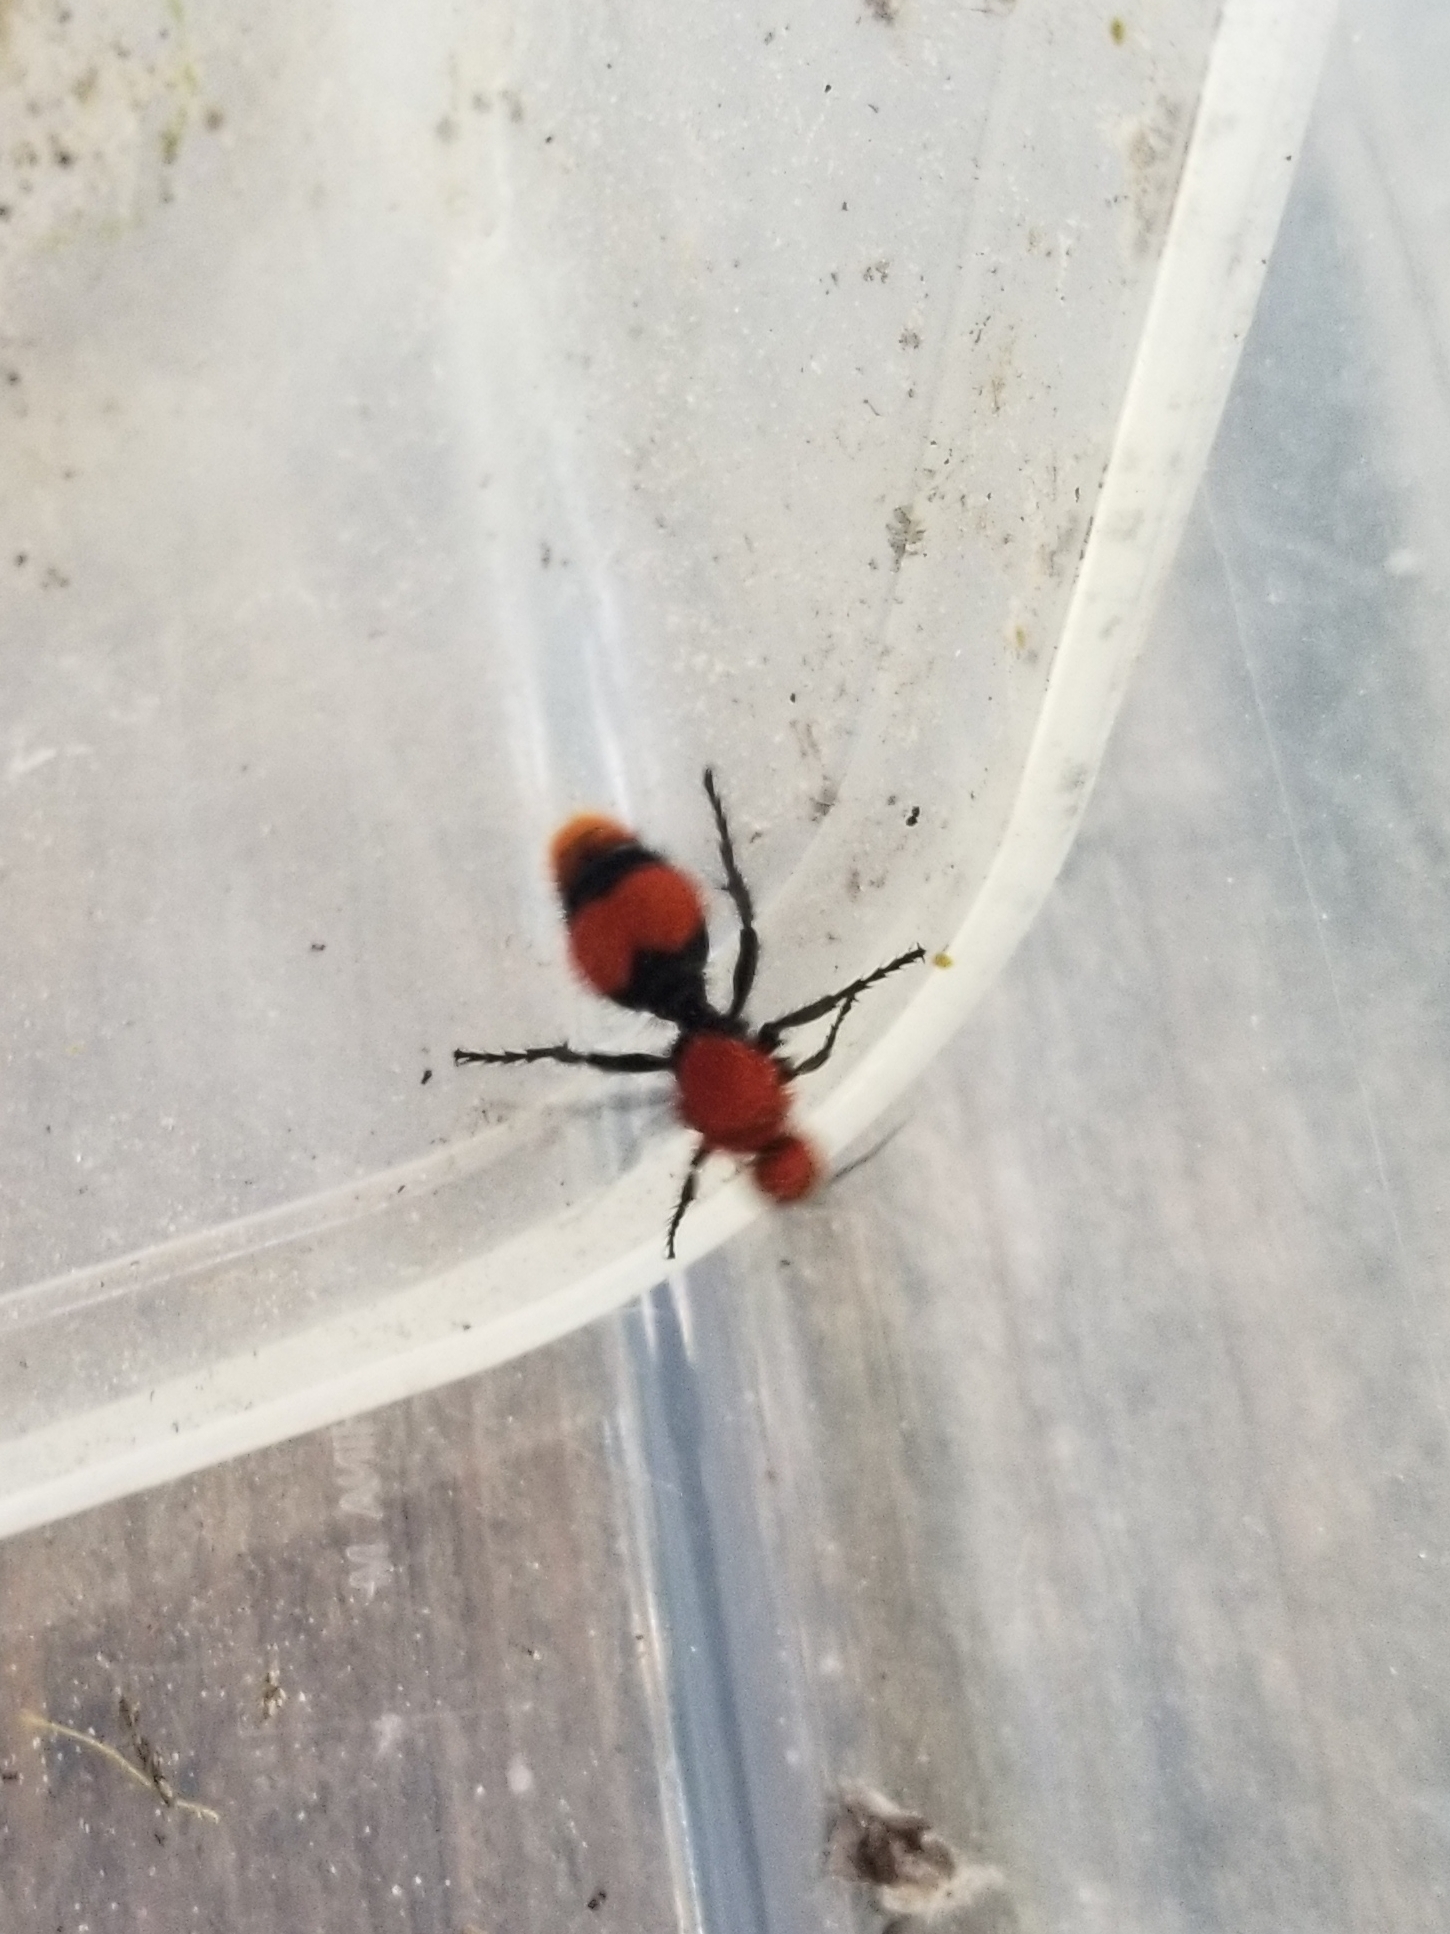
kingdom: Animalia
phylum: Arthropoda
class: Insecta
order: Hymenoptera
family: Mutillidae
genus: Dasymutilla
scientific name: Dasymutilla occidentalis
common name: Common eastern velvet ant
